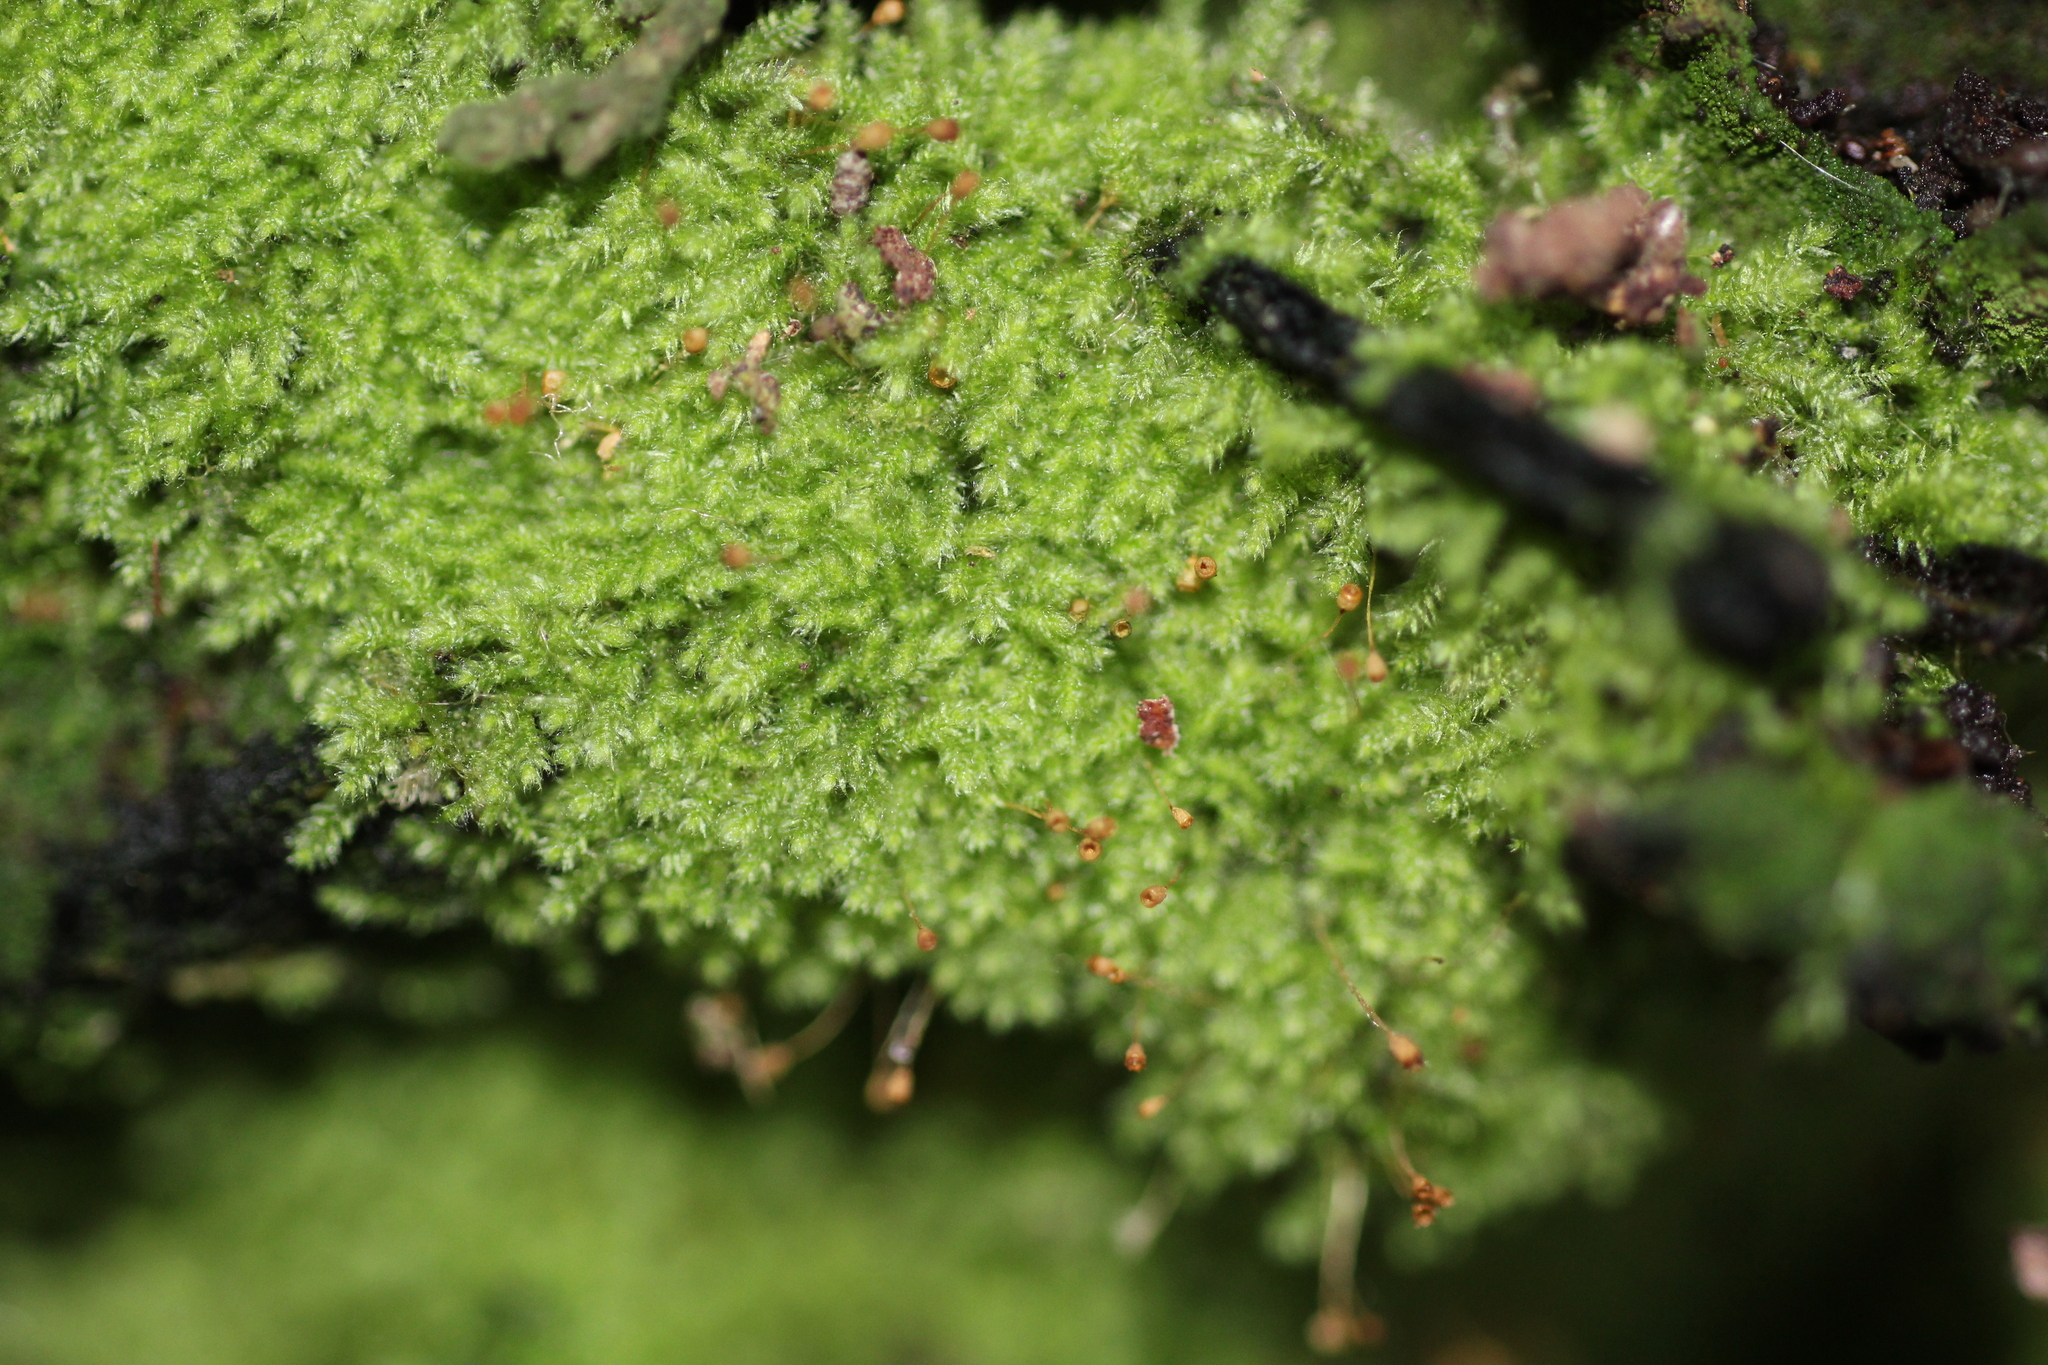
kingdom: Plantae
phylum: Bryophyta
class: Bryopsida
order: Hypnales
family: Fabroniaceae
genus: Fabronia
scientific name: Fabronia hampeana
